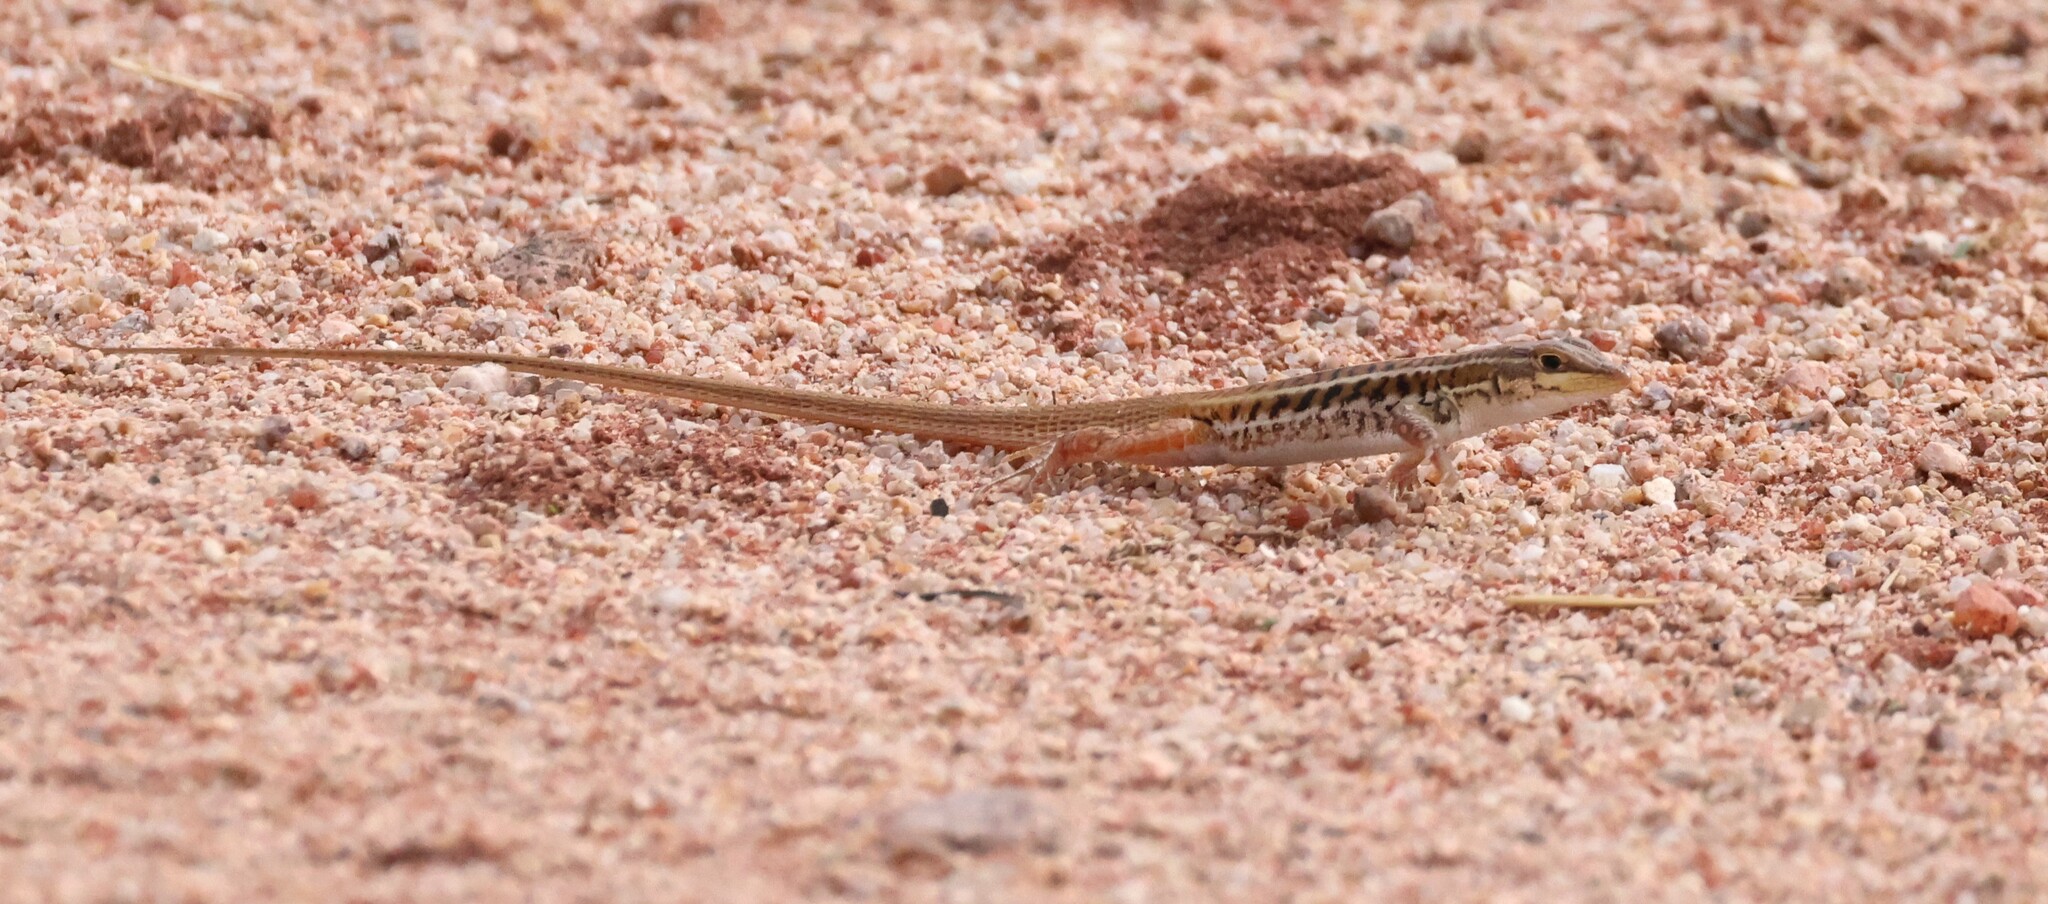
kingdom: Animalia
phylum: Chordata
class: Squamata
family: Lacertidae
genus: Heliobolus
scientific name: Heliobolus lugubris
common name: Bushveld lizard
